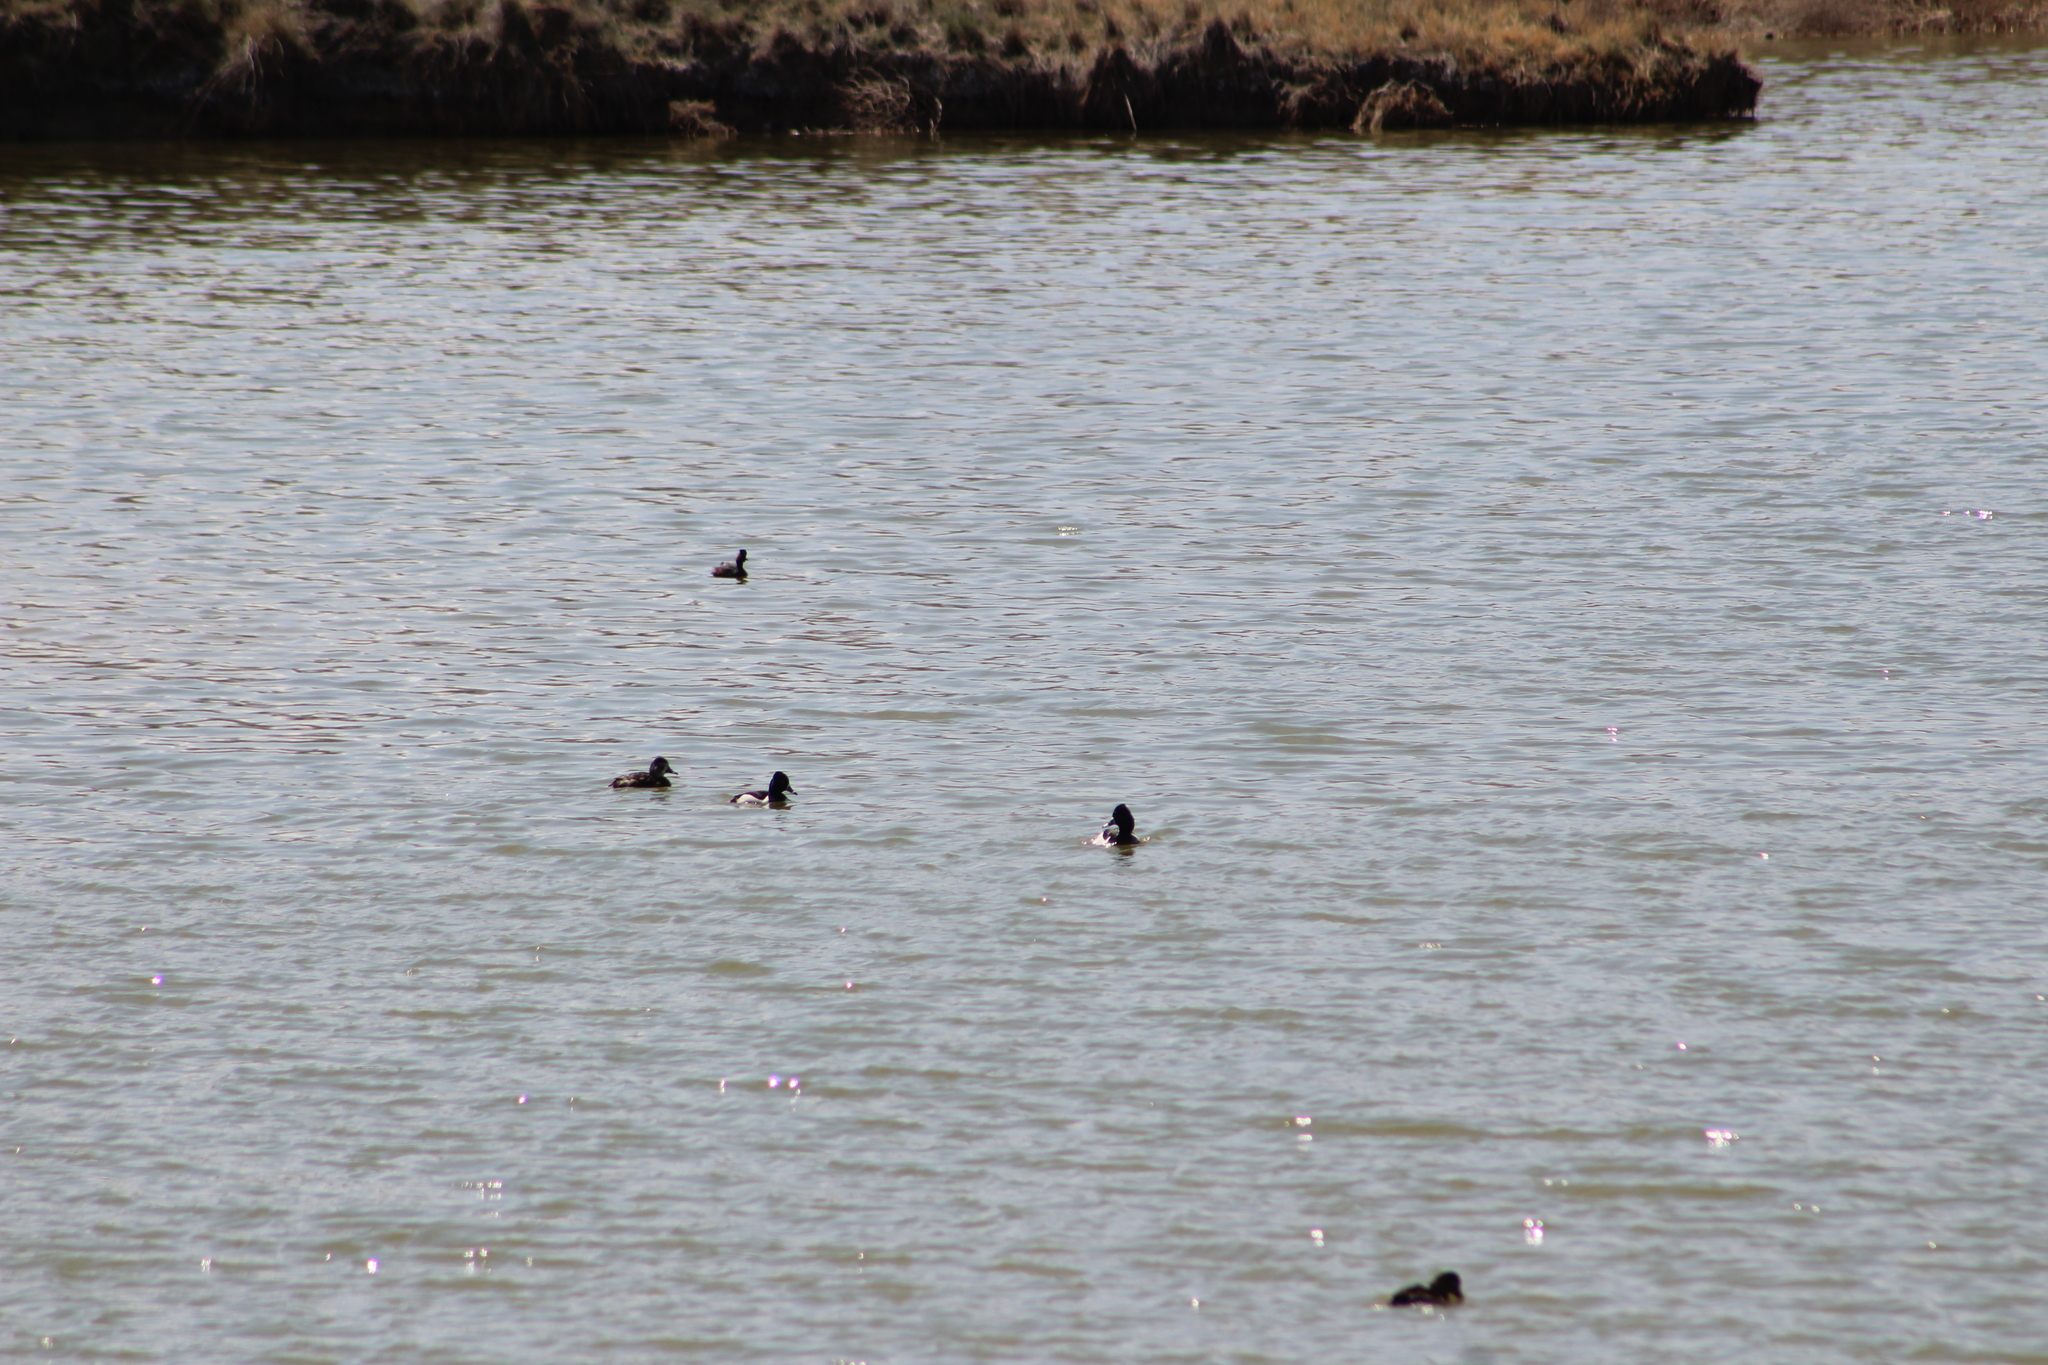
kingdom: Animalia
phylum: Chordata
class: Aves
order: Anseriformes
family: Anatidae
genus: Aythya
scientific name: Aythya collaris
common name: Ring-necked duck
